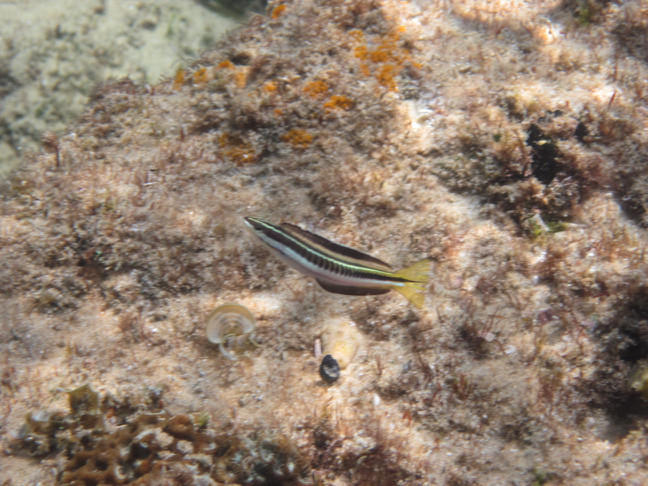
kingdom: Animalia
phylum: Chordata
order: Perciformes
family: Blenniidae
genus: Plagiotremus
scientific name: Plagiotremus tapeinosoma
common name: Hit and run blenny
